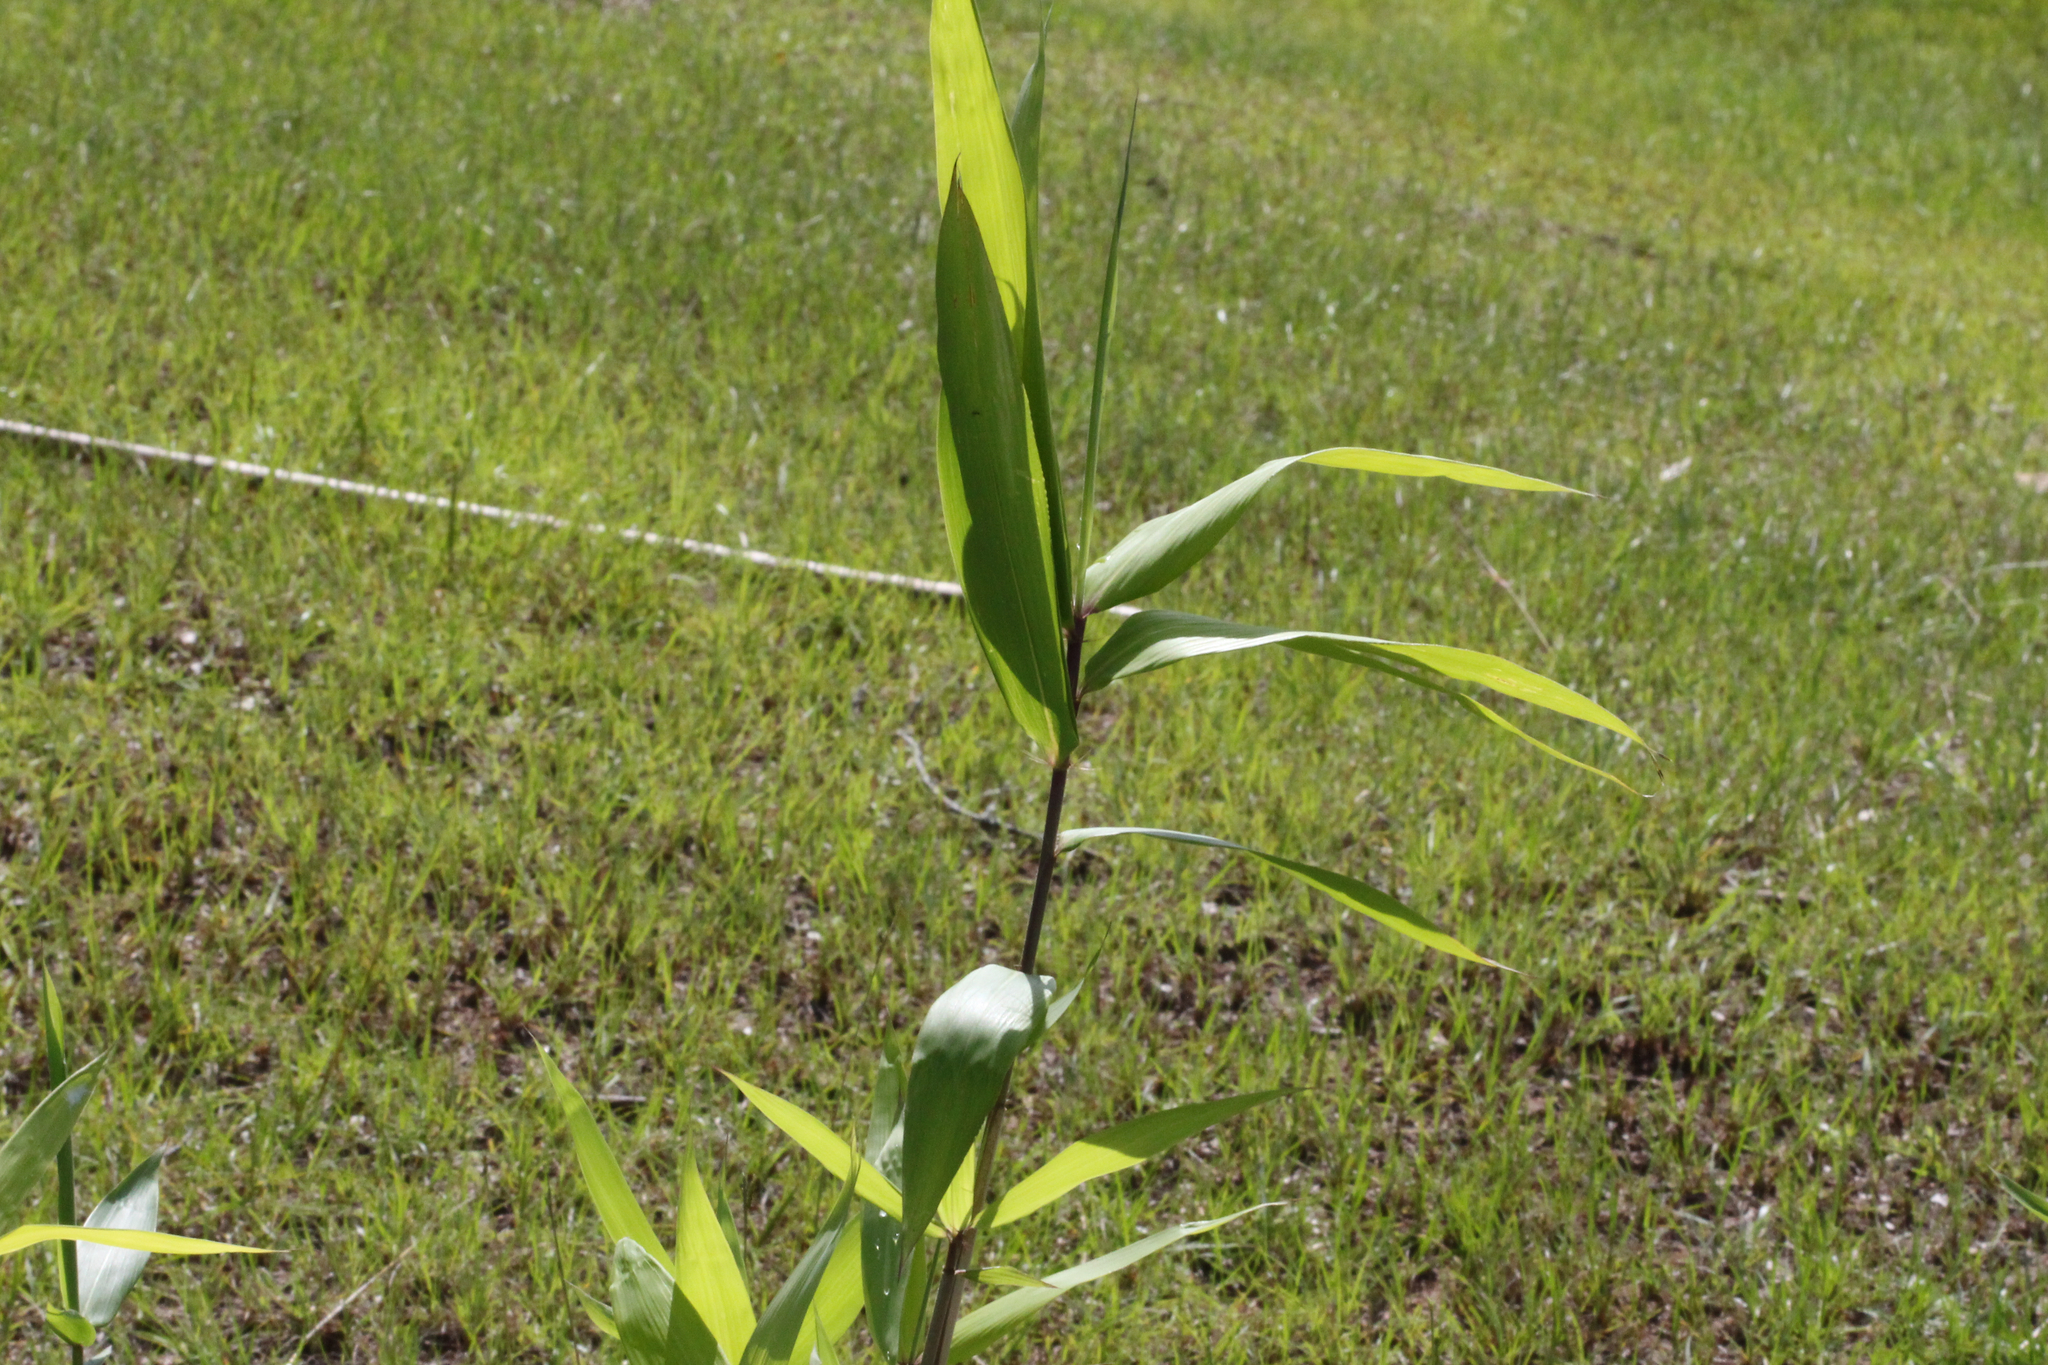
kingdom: Plantae
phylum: Tracheophyta
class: Liliopsida
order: Poales
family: Poaceae
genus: Arundinaria
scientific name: Arundinaria gigantea
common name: Giant cane
